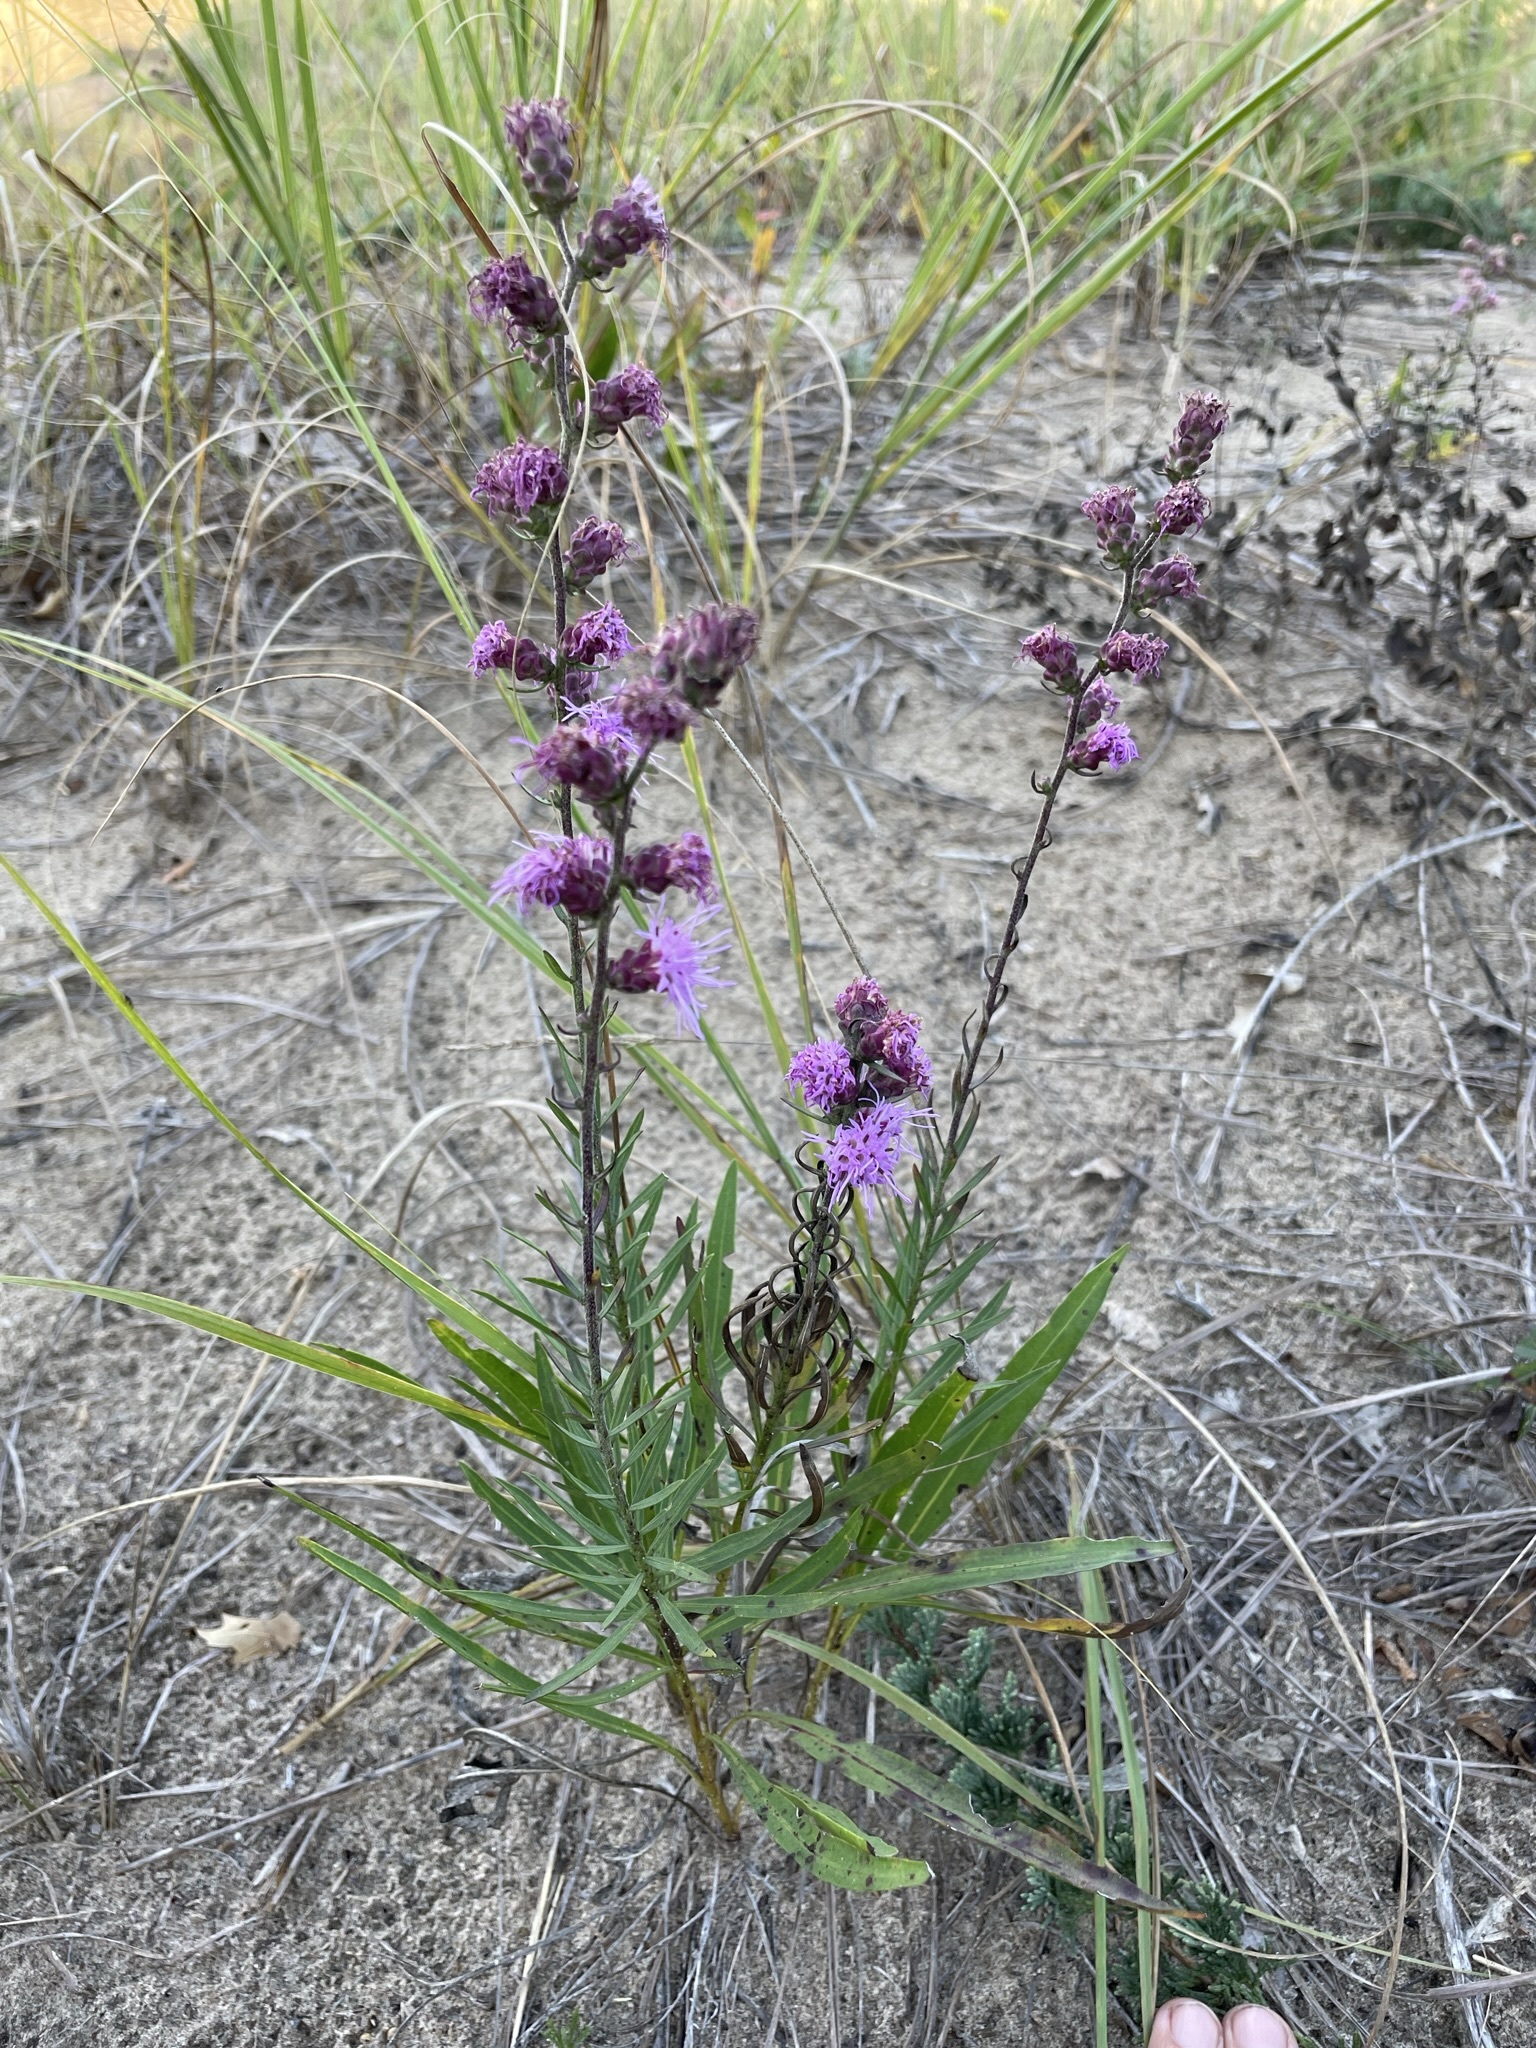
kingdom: Plantae
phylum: Tracheophyta
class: Magnoliopsida
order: Asterales
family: Asteraceae
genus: Liatris
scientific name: Liatris aspera
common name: Lacerate blazing-star
